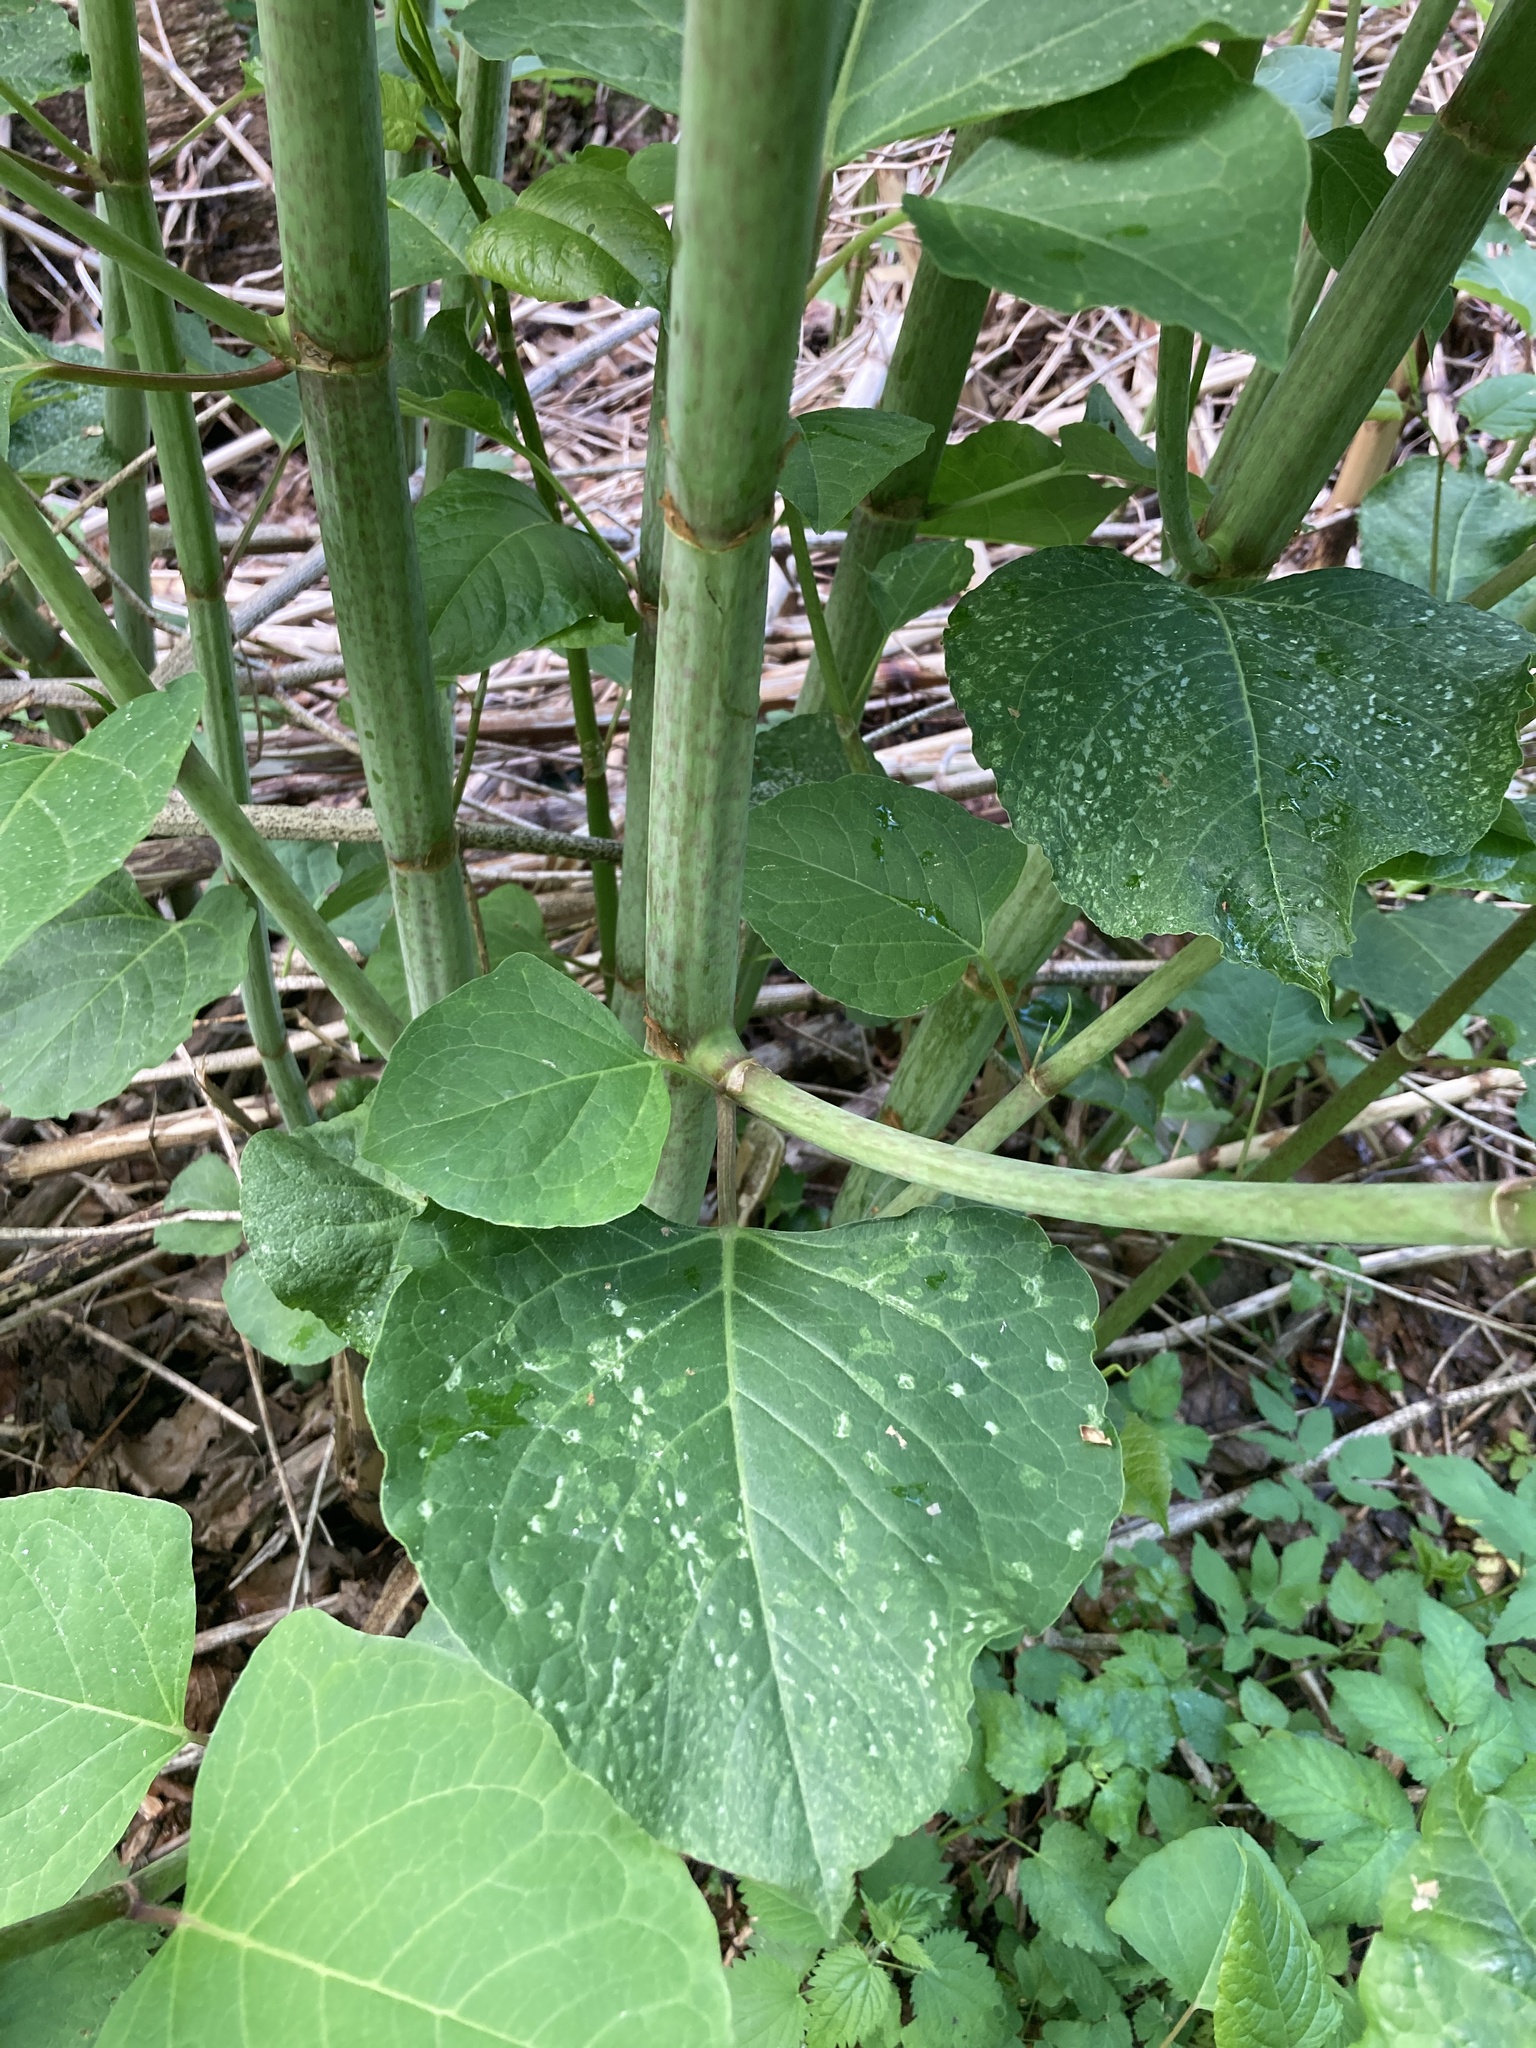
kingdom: Plantae
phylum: Tracheophyta
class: Magnoliopsida
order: Caryophyllales
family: Polygonaceae
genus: Reynoutria
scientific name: Reynoutria bohemica
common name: Bohemian knotweed
